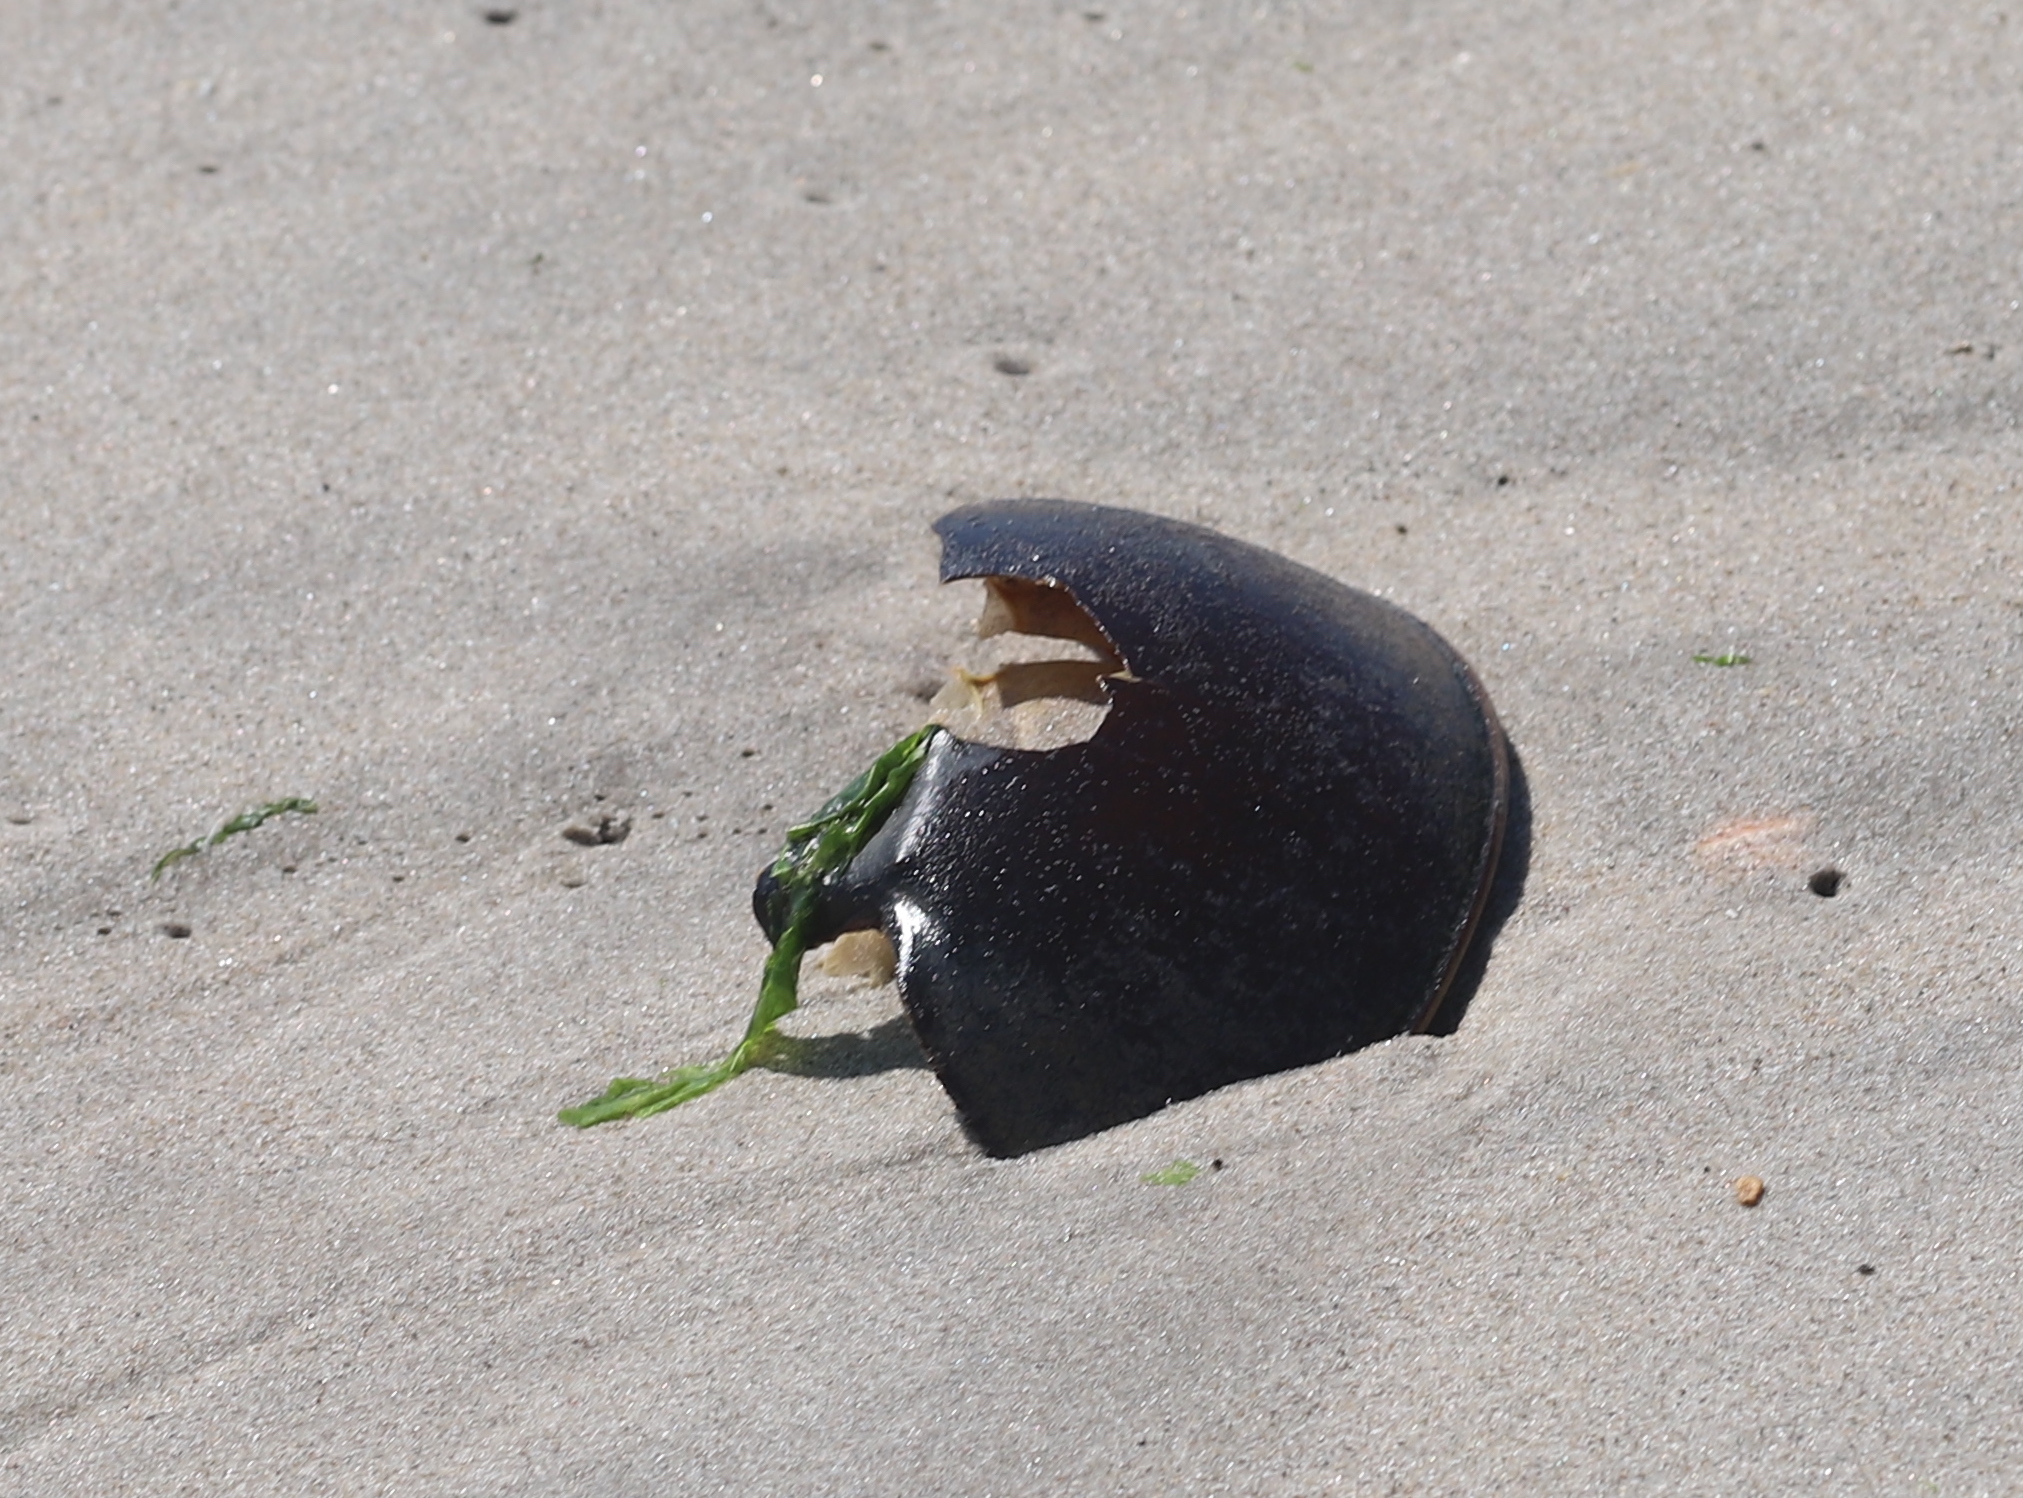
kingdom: Animalia
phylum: Arthropoda
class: Merostomata
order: Xiphosurida
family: Limulidae
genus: Limulus
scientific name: Limulus polyphemus
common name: Horseshoe crab
